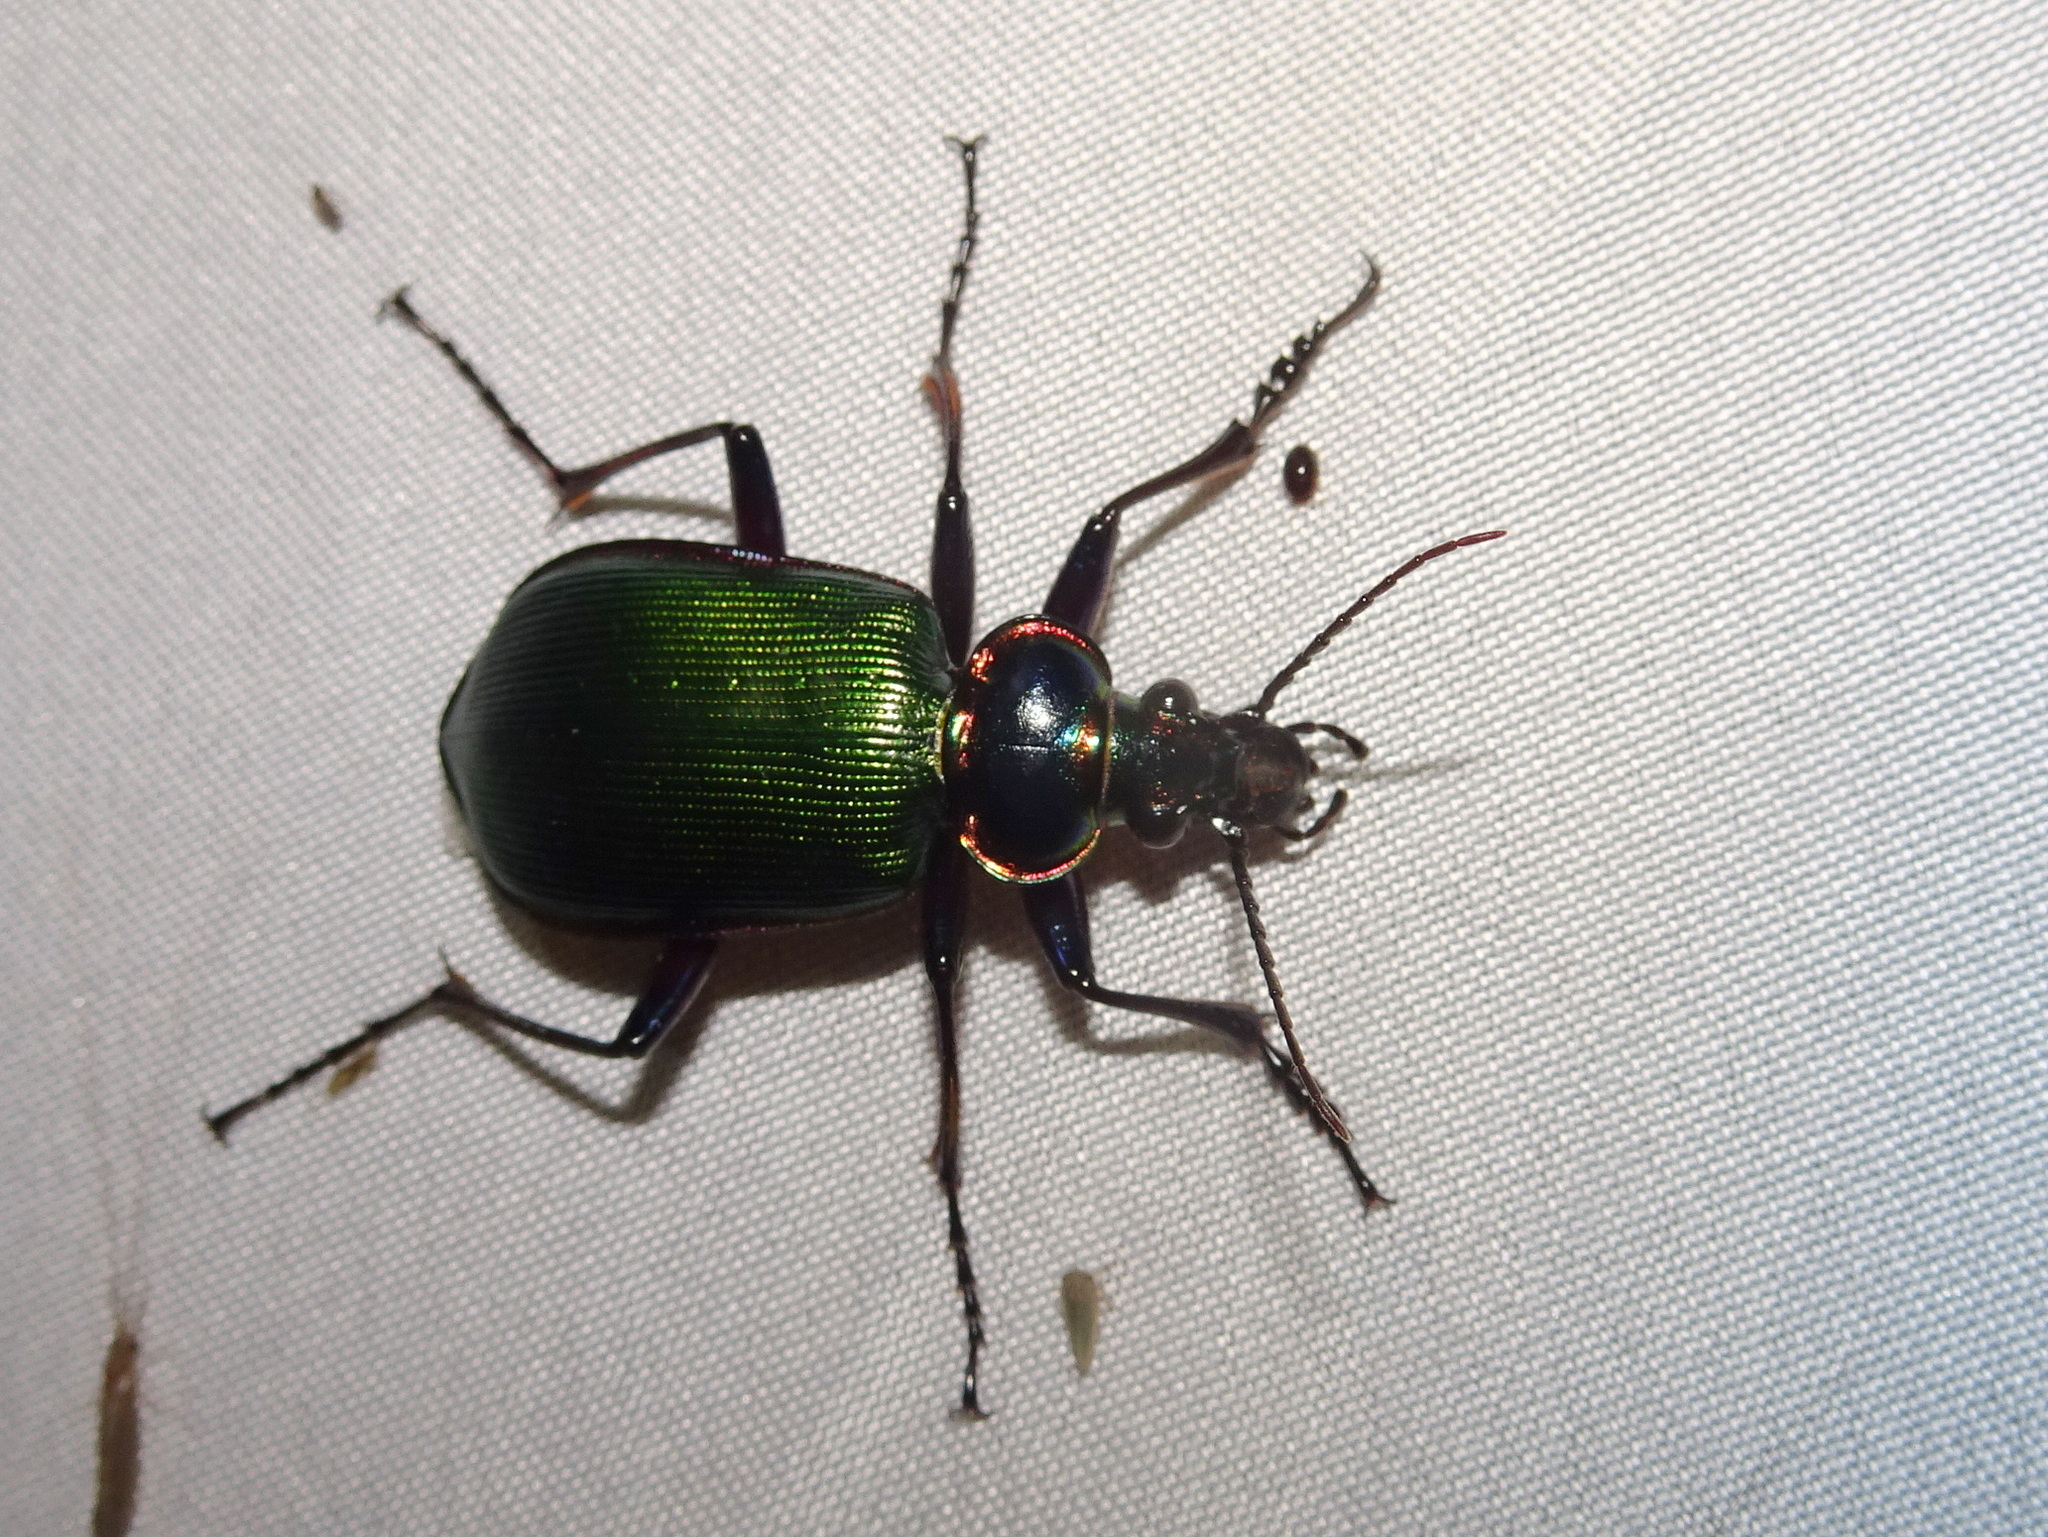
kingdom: Animalia
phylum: Arthropoda
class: Insecta
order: Coleoptera
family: Carabidae
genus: Calosoma
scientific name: Calosoma scrutator
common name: Fiery searcher beetle
